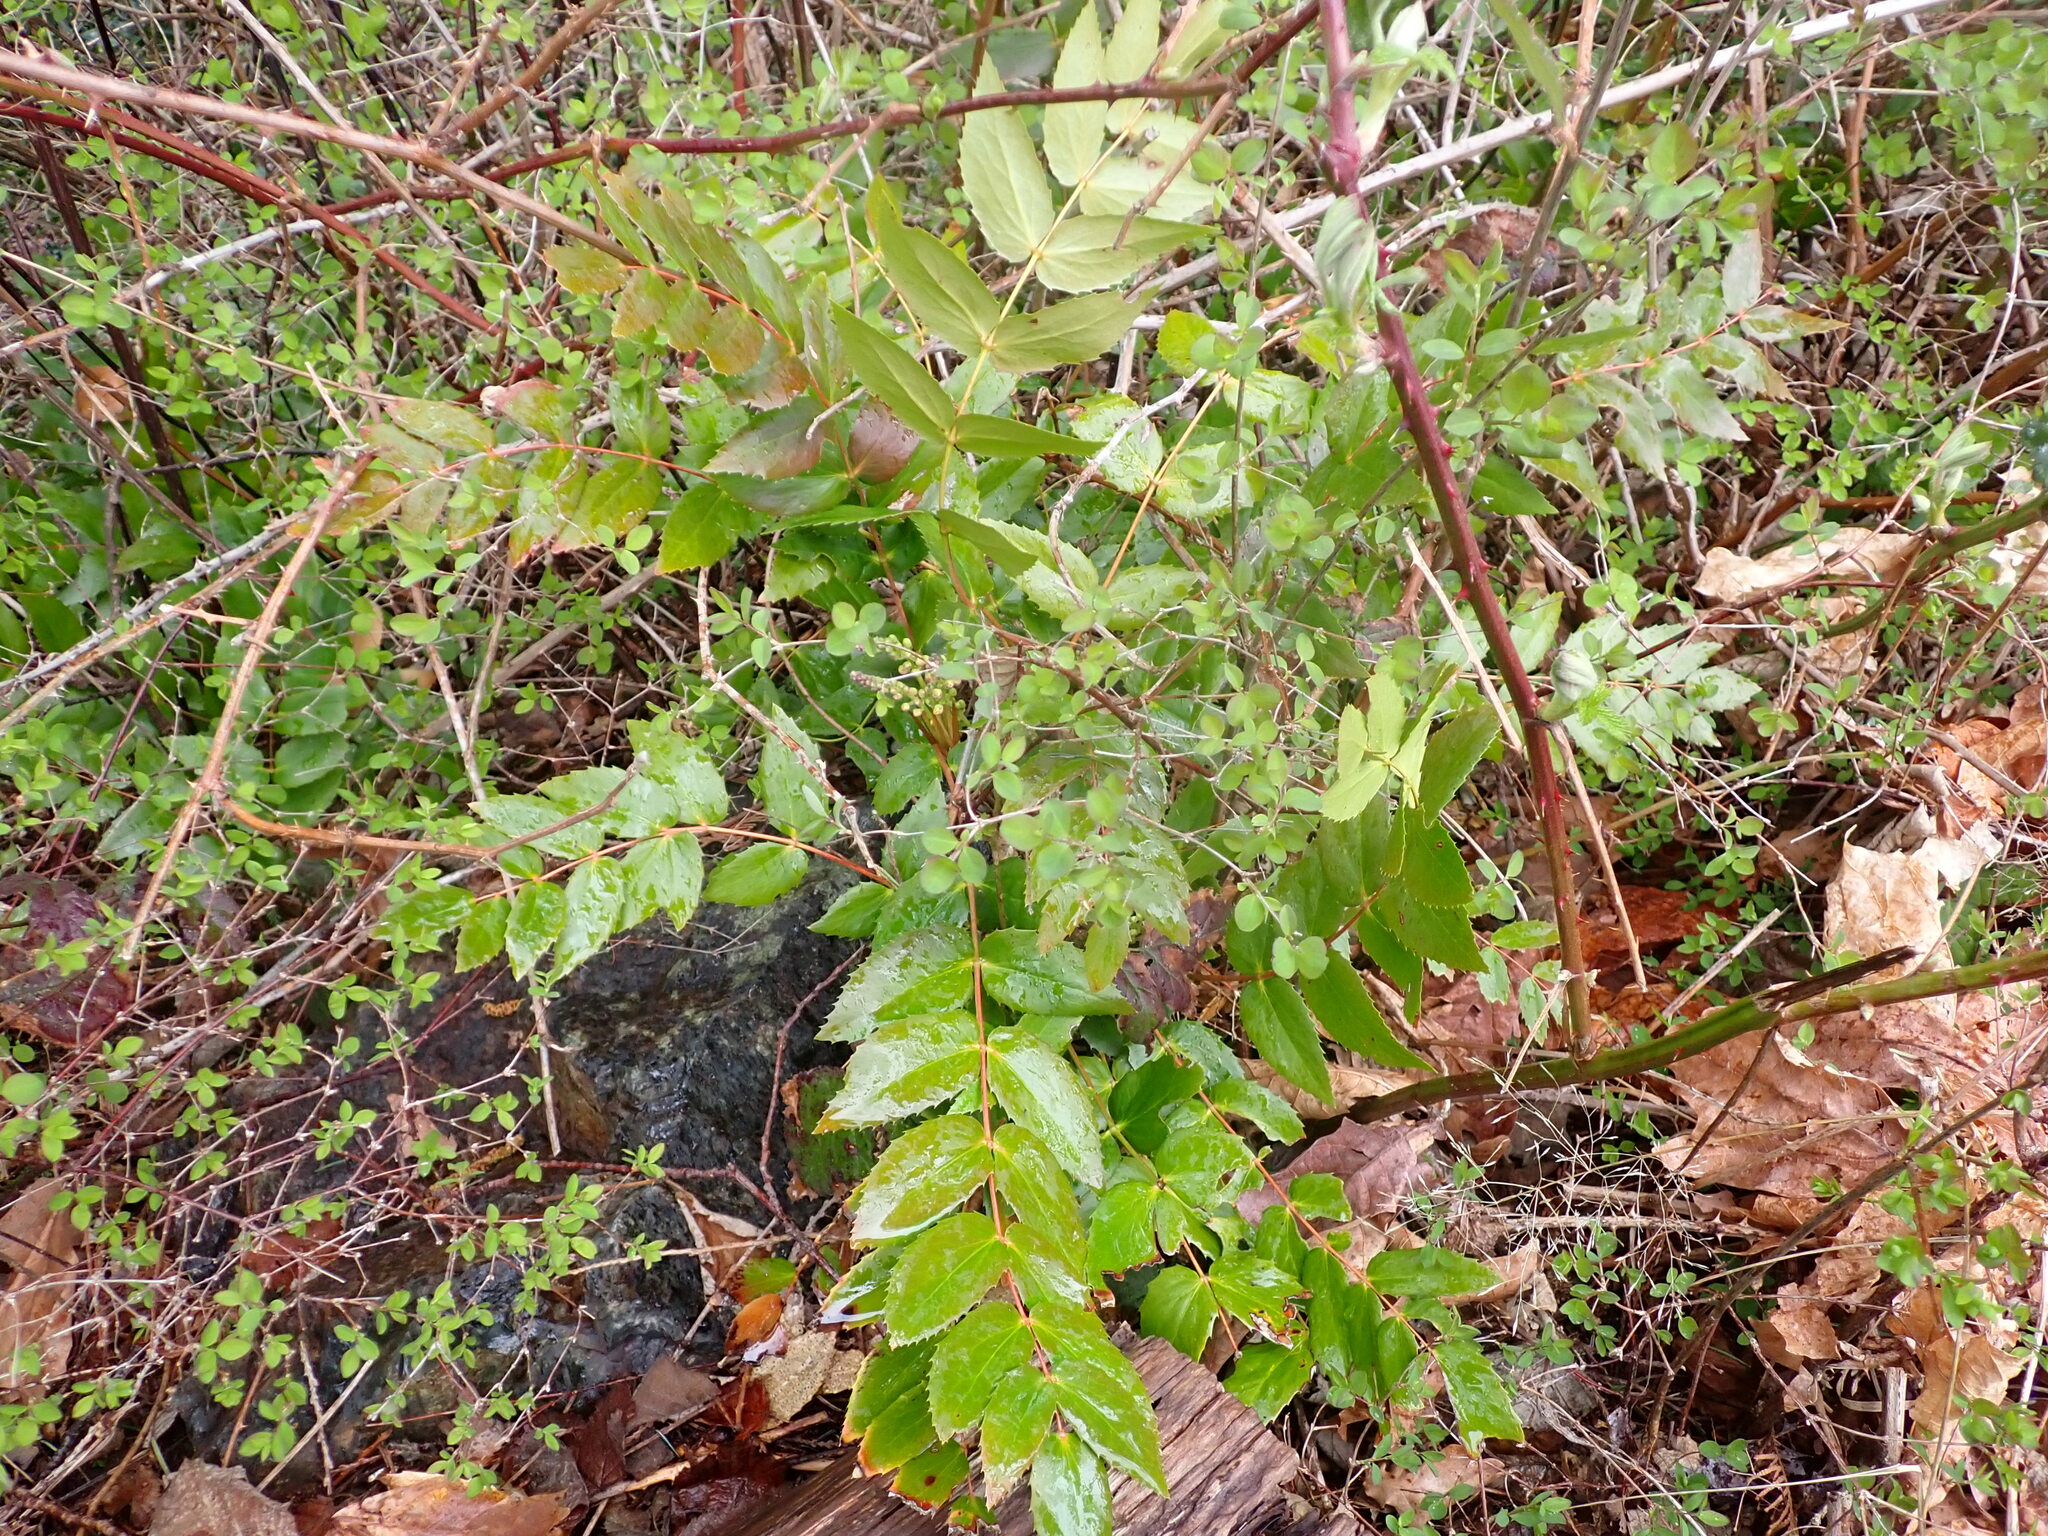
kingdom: Plantae
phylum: Tracheophyta
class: Magnoliopsida
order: Ranunculales
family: Berberidaceae
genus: Mahonia
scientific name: Mahonia nervosa
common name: Cascade oregon-grape
